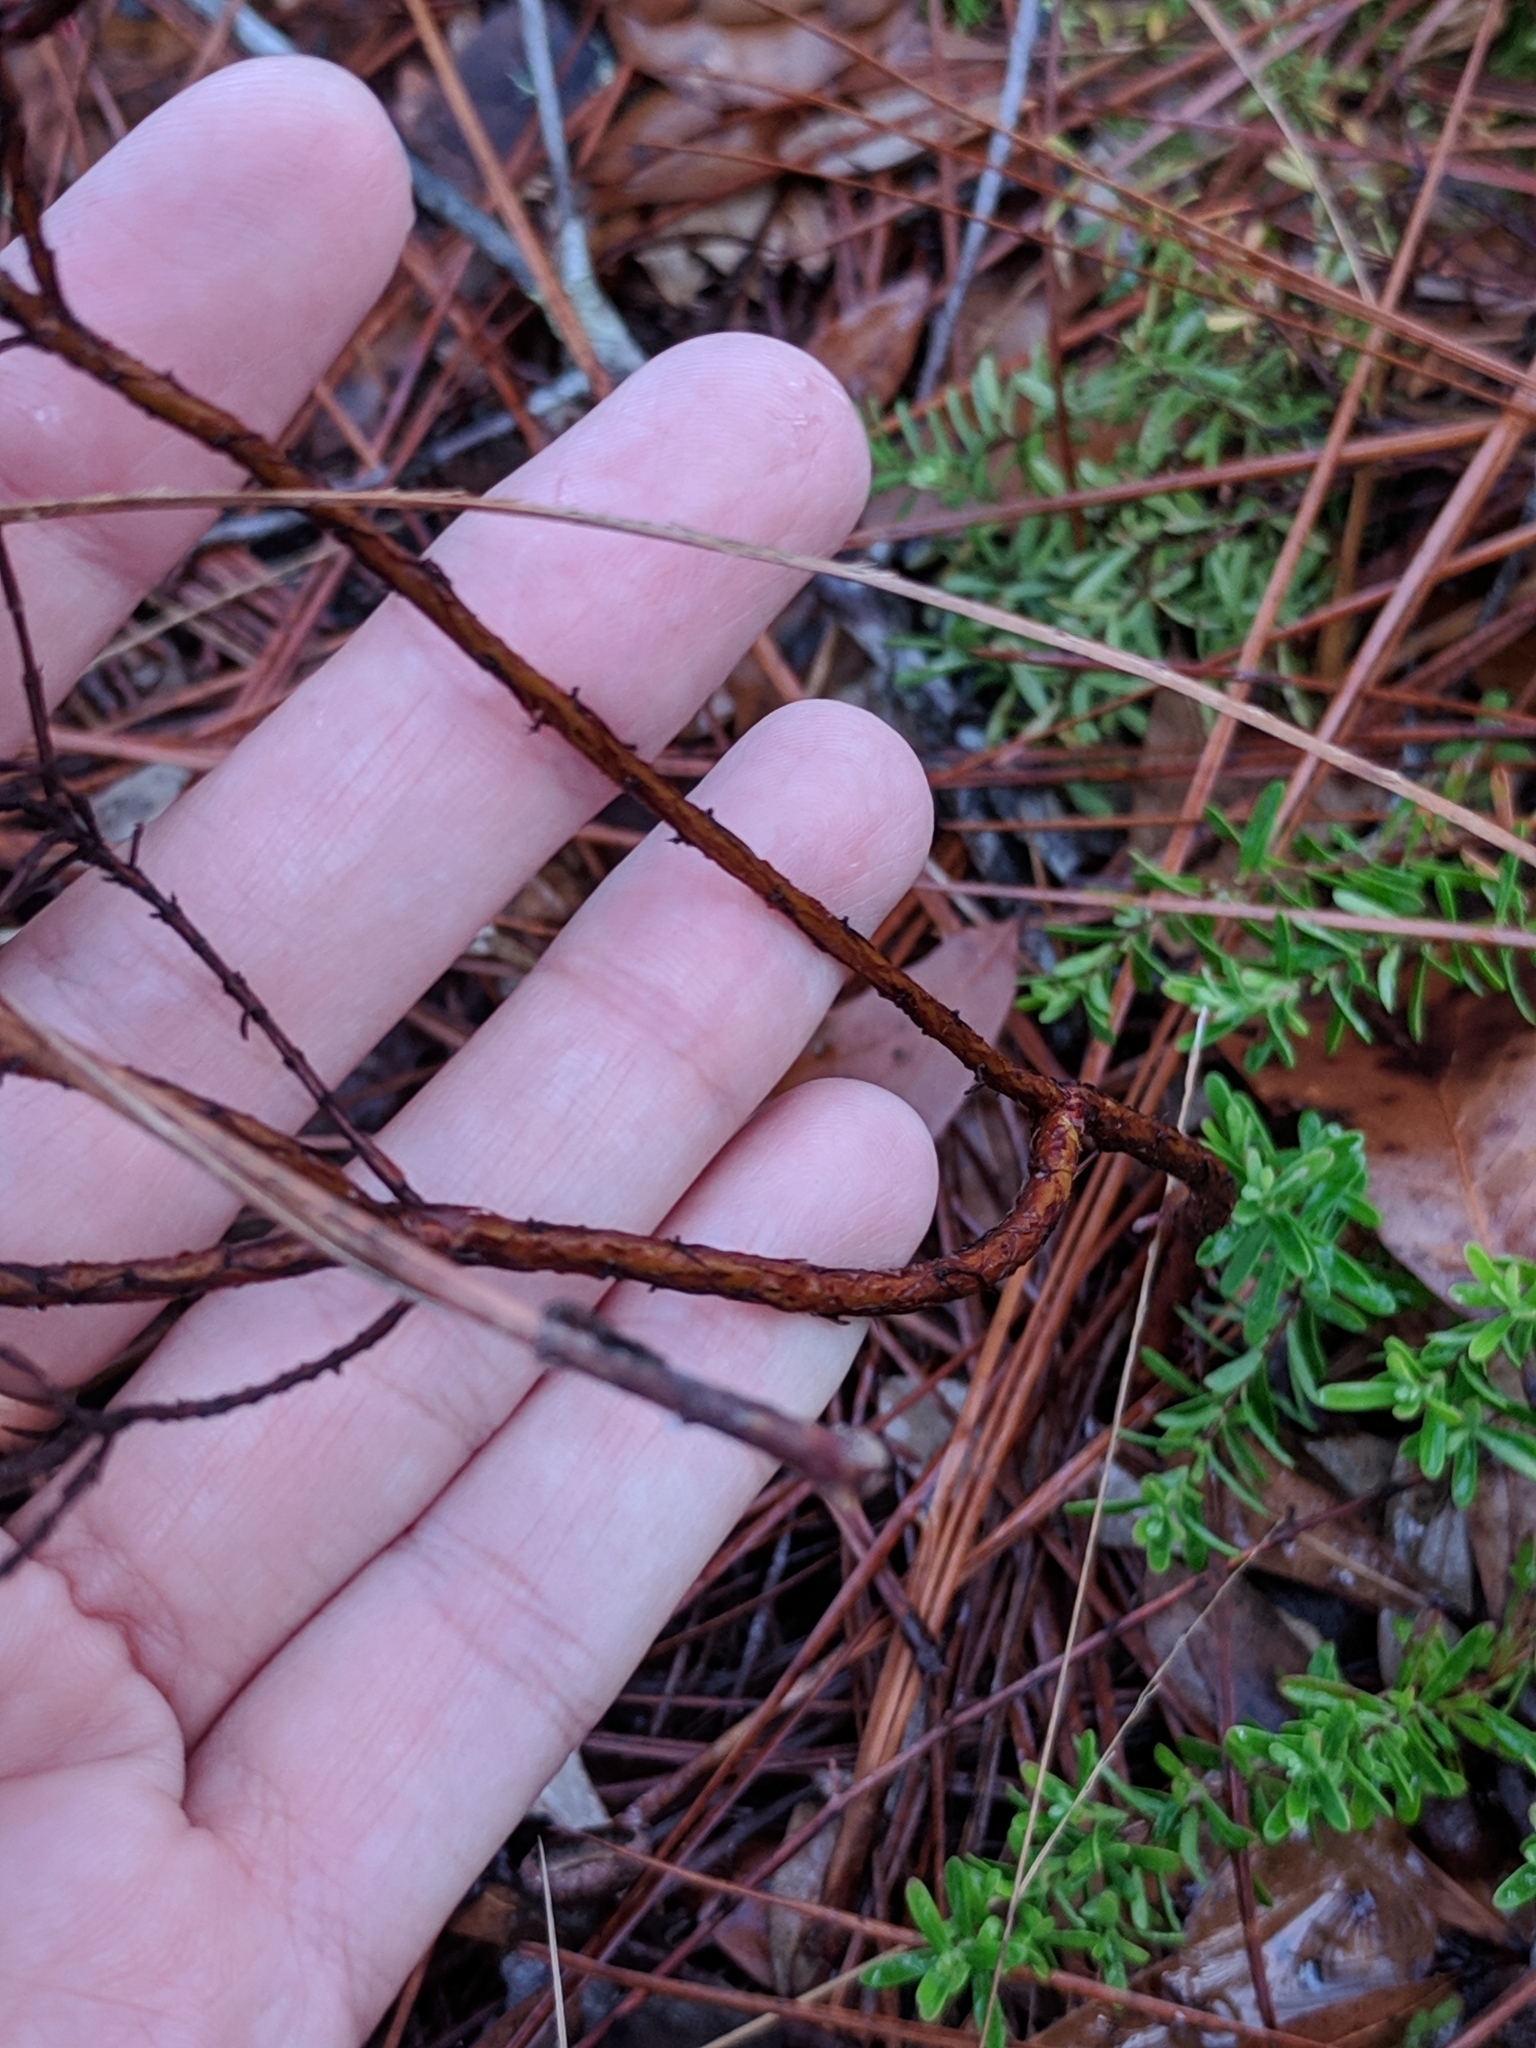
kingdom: Plantae
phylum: Tracheophyta
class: Magnoliopsida
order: Malpighiales
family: Hypericaceae
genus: Hypericum
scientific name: Hypericum microsepalum
